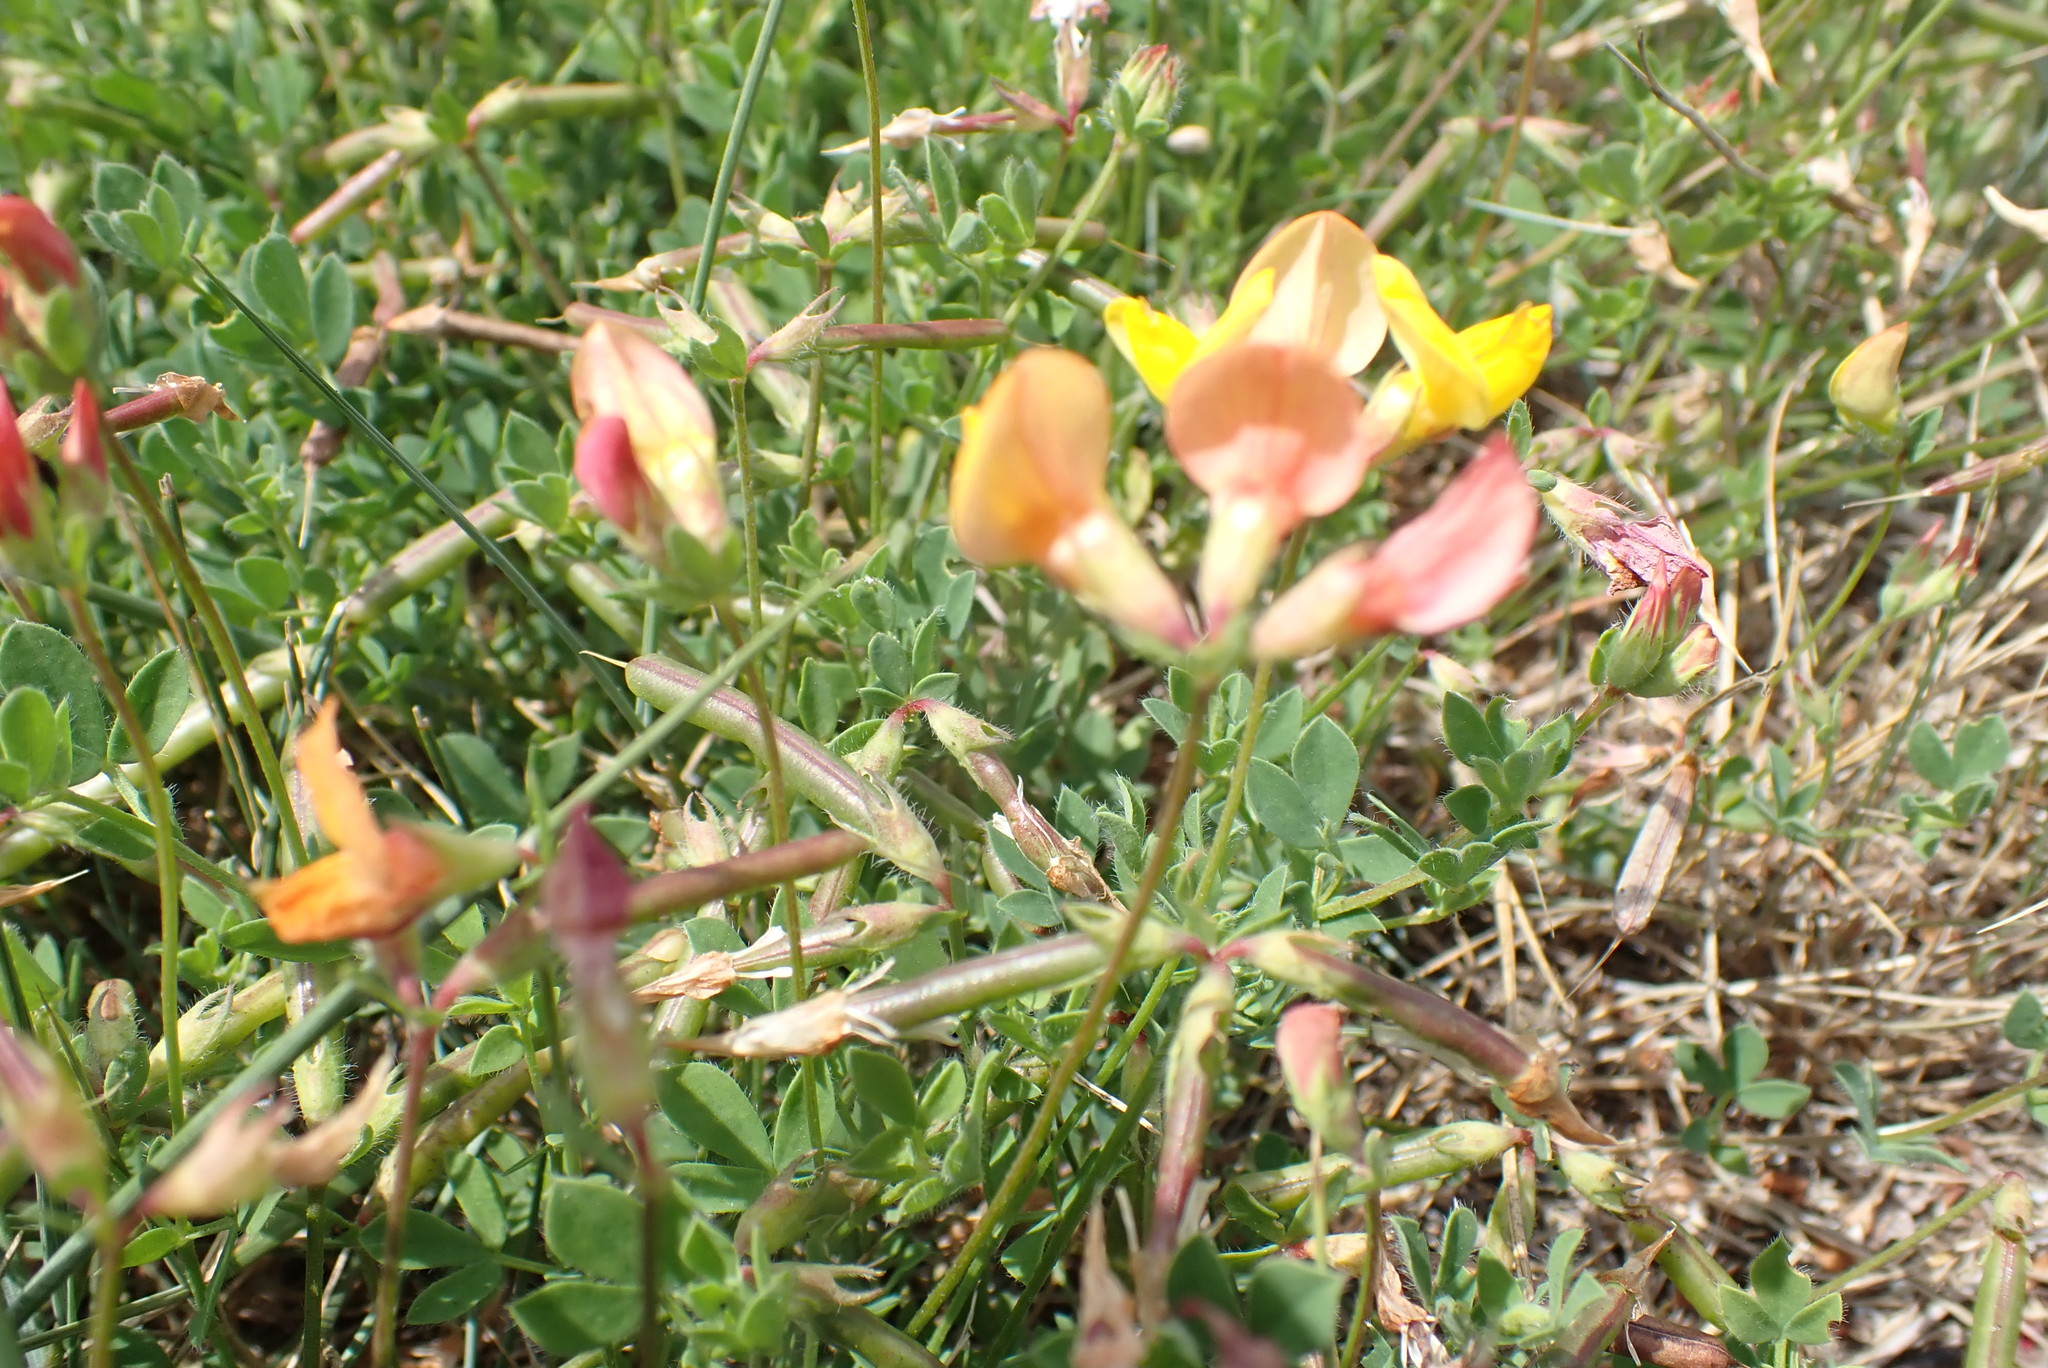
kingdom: Plantae
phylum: Tracheophyta
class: Magnoliopsida
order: Fabales
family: Fabaceae
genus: Lotus
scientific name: Lotus corniculatus
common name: Common bird's-foot-trefoil
